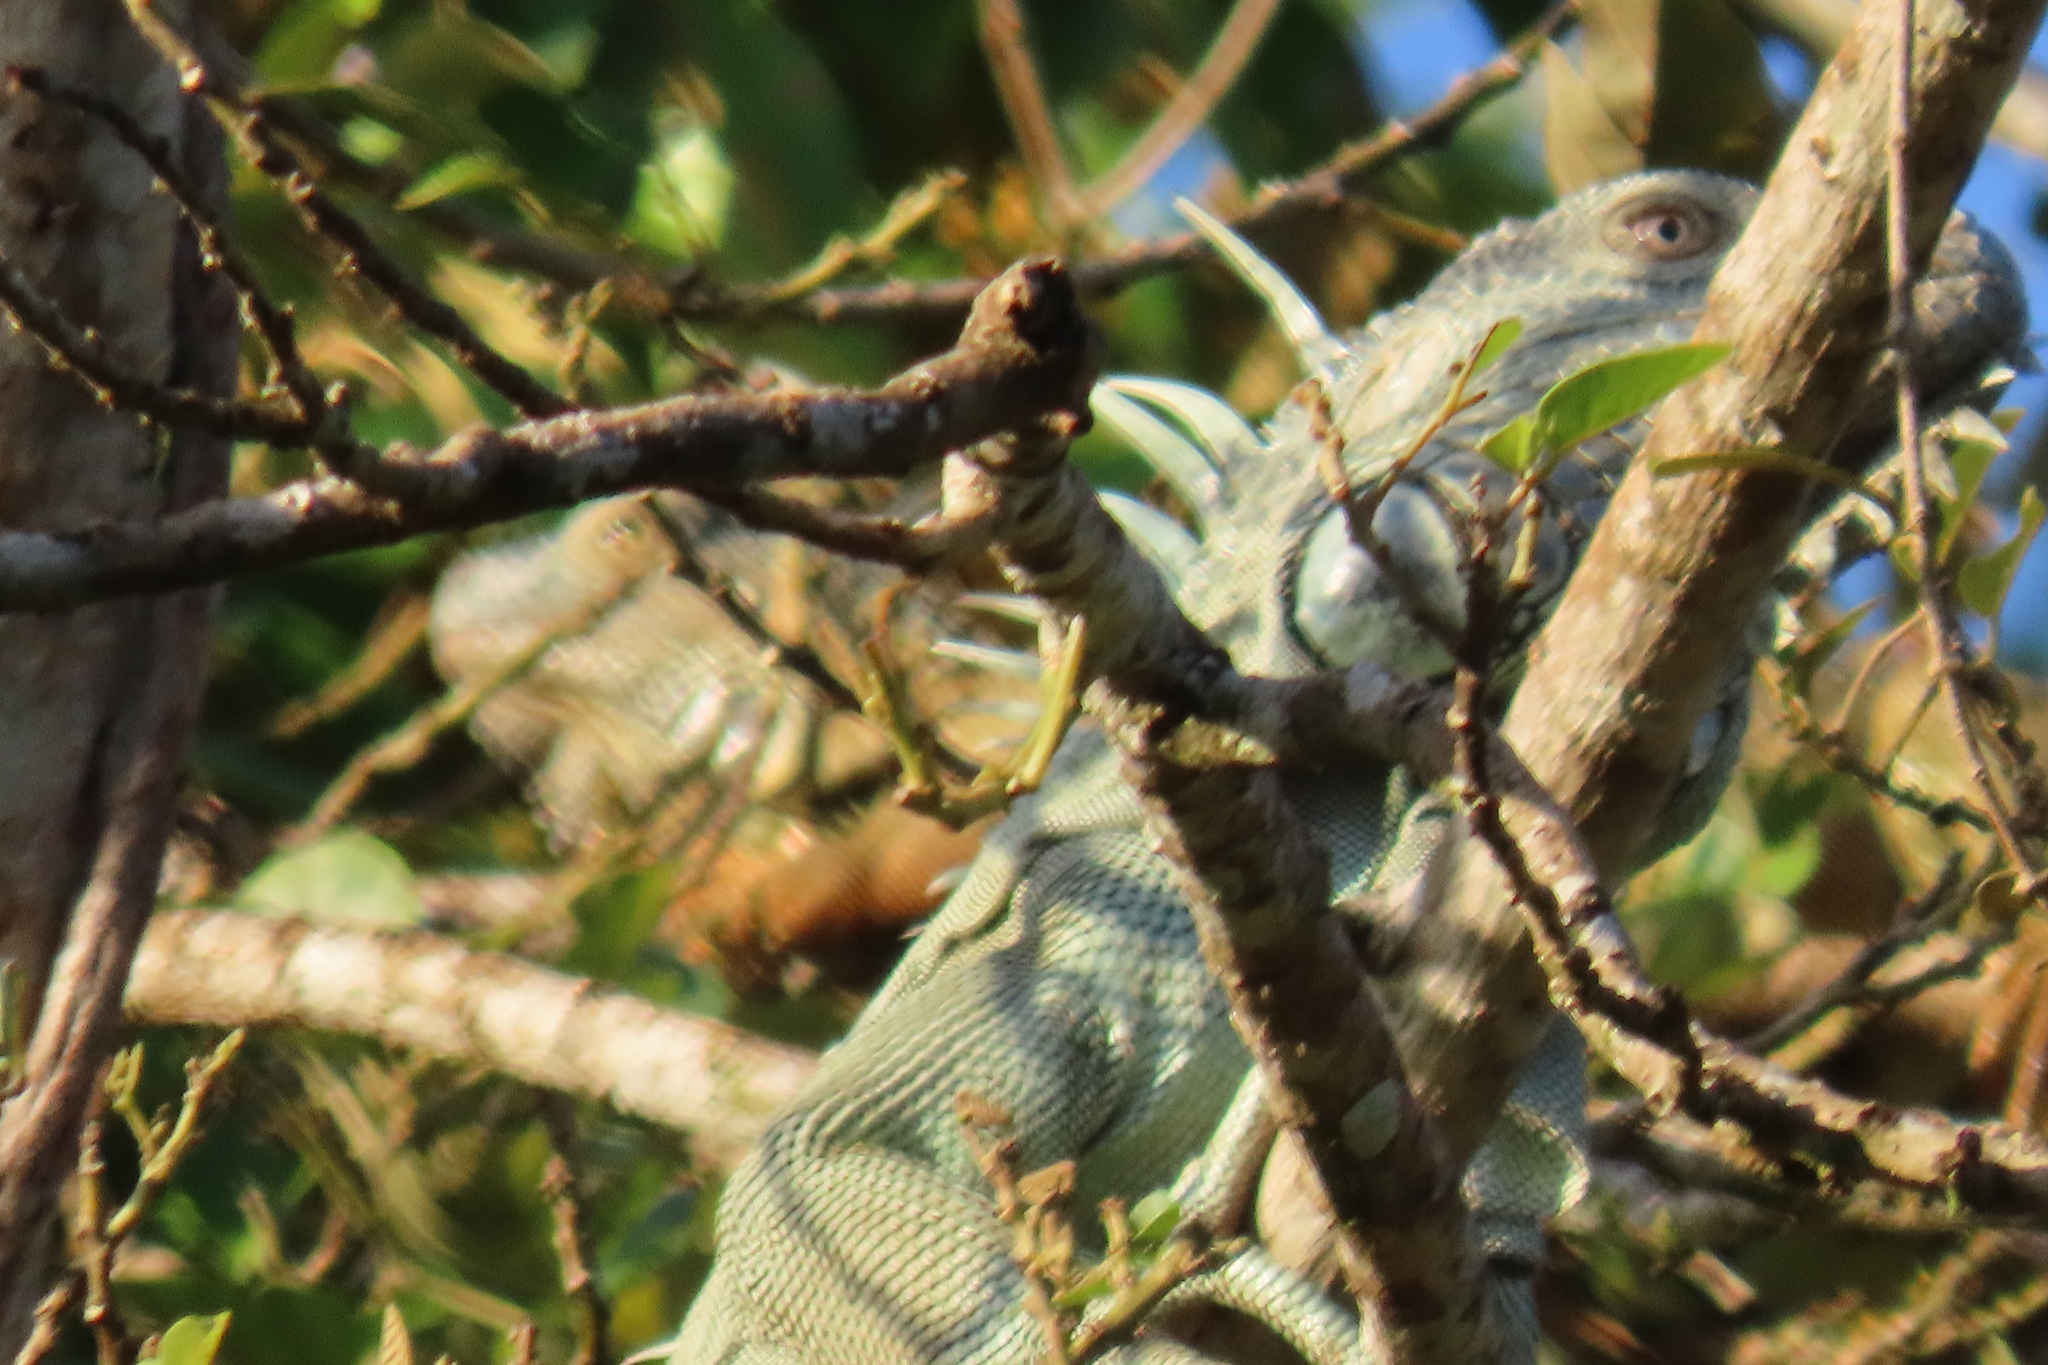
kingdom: Animalia
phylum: Chordata
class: Squamata
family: Iguanidae
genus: Iguana
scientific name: Iguana iguana
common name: Green iguana
